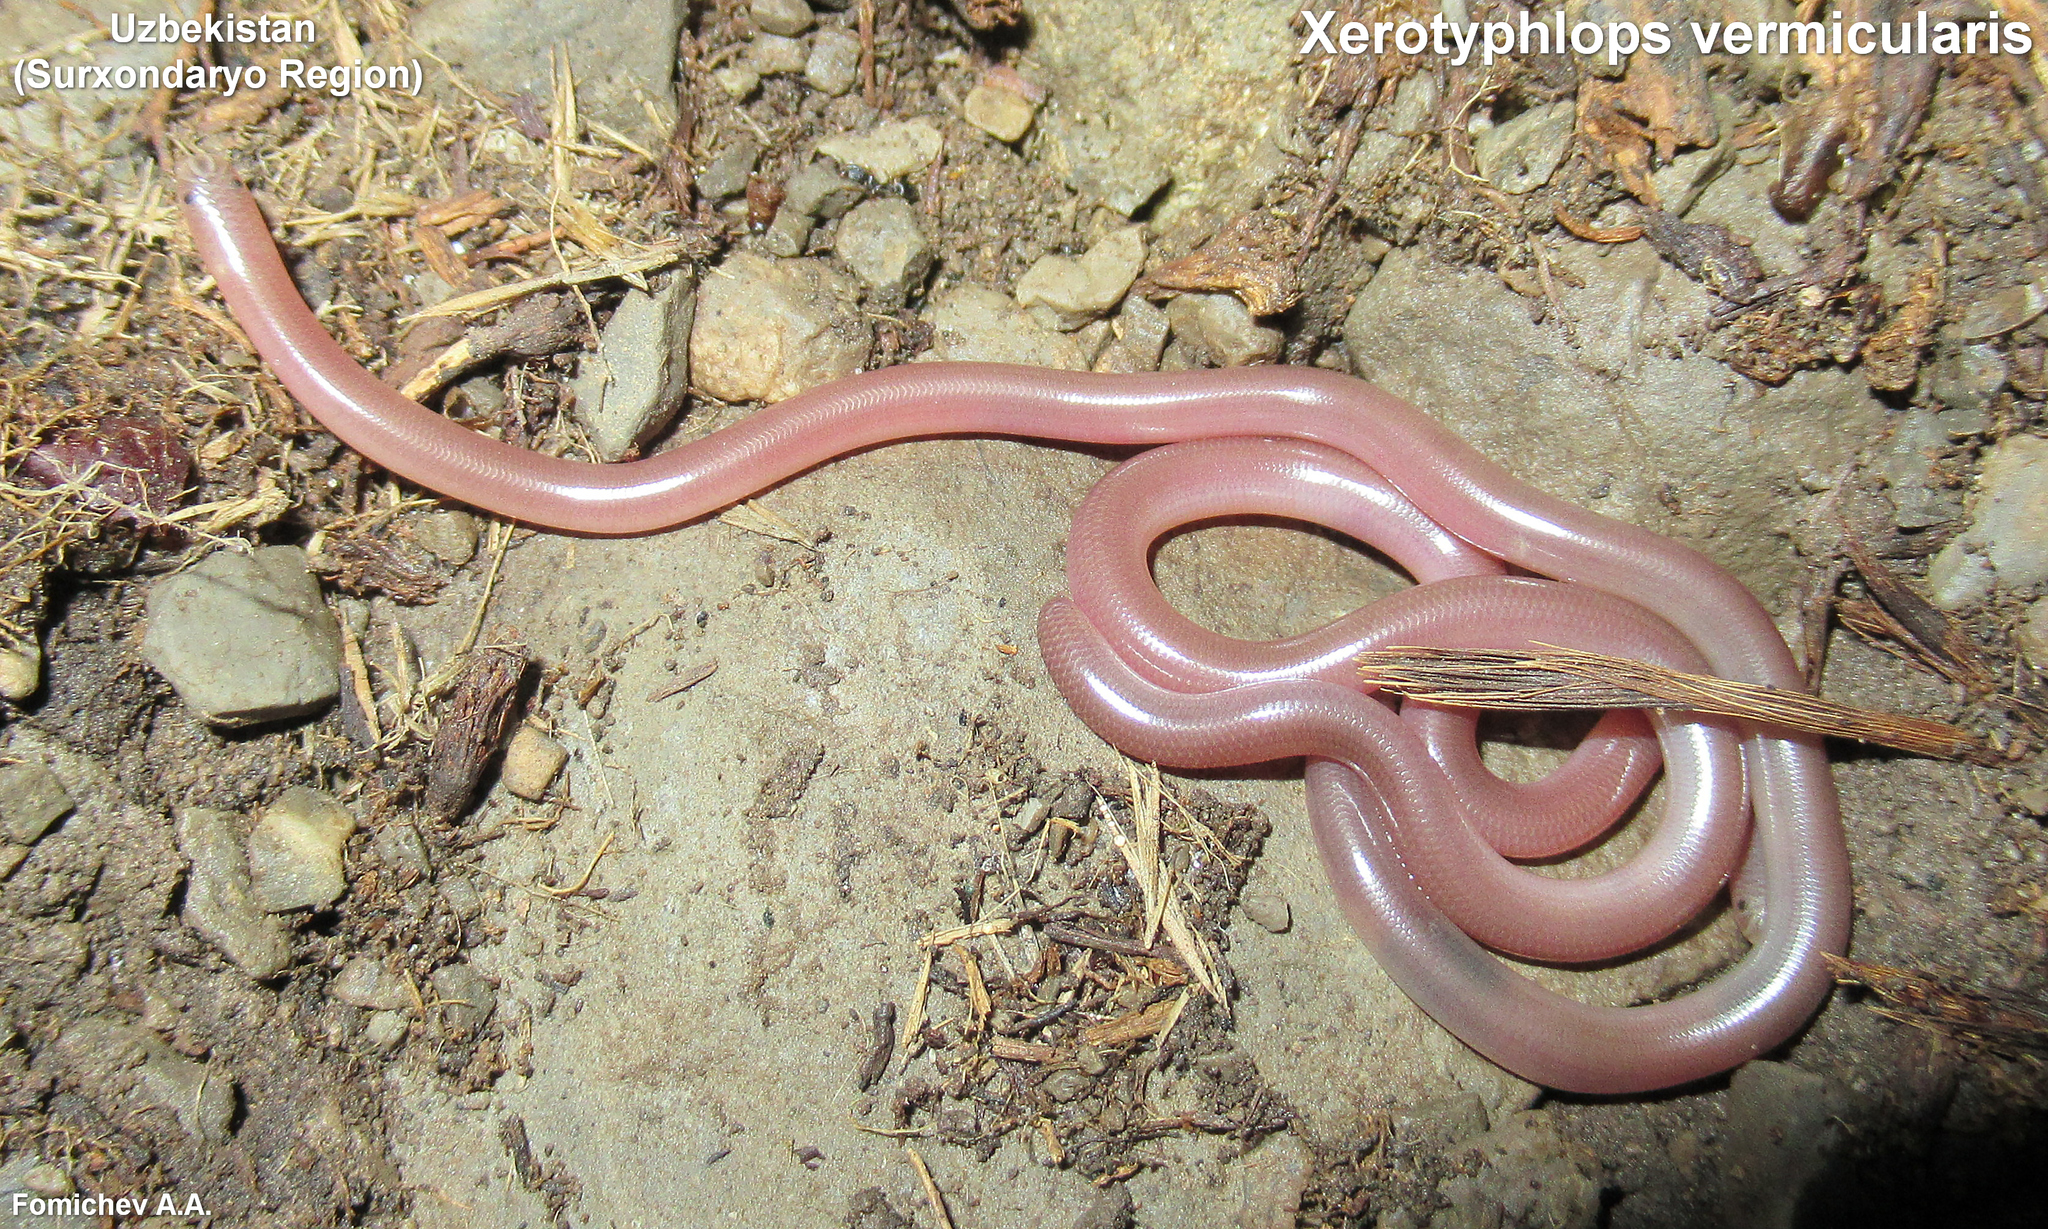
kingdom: Animalia
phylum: Chordata
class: Squamata
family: Typhlopidae
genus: Xerotyphlops
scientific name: Xerotyphlops vermicularis
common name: Eurasian blind snake
